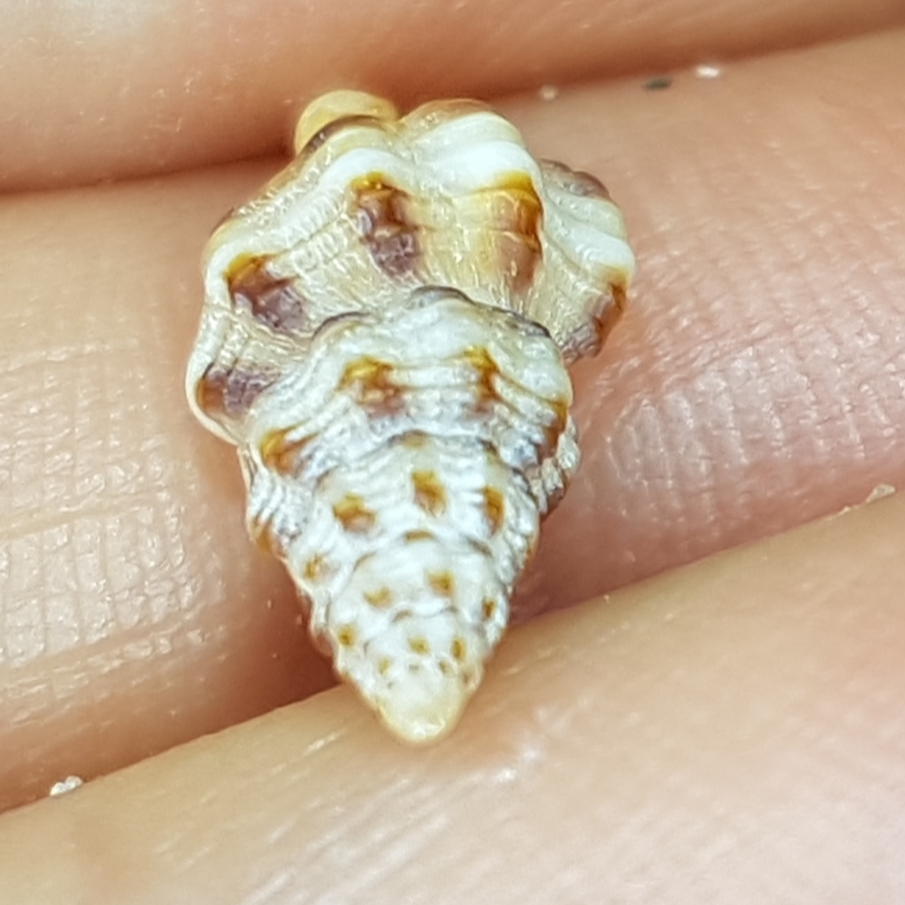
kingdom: Animalia
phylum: Mollusca
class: Gastropoda
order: Neogastropoda
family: Fasciolariidae
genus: Pseudofusus
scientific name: Pseudofusus pulchellus
